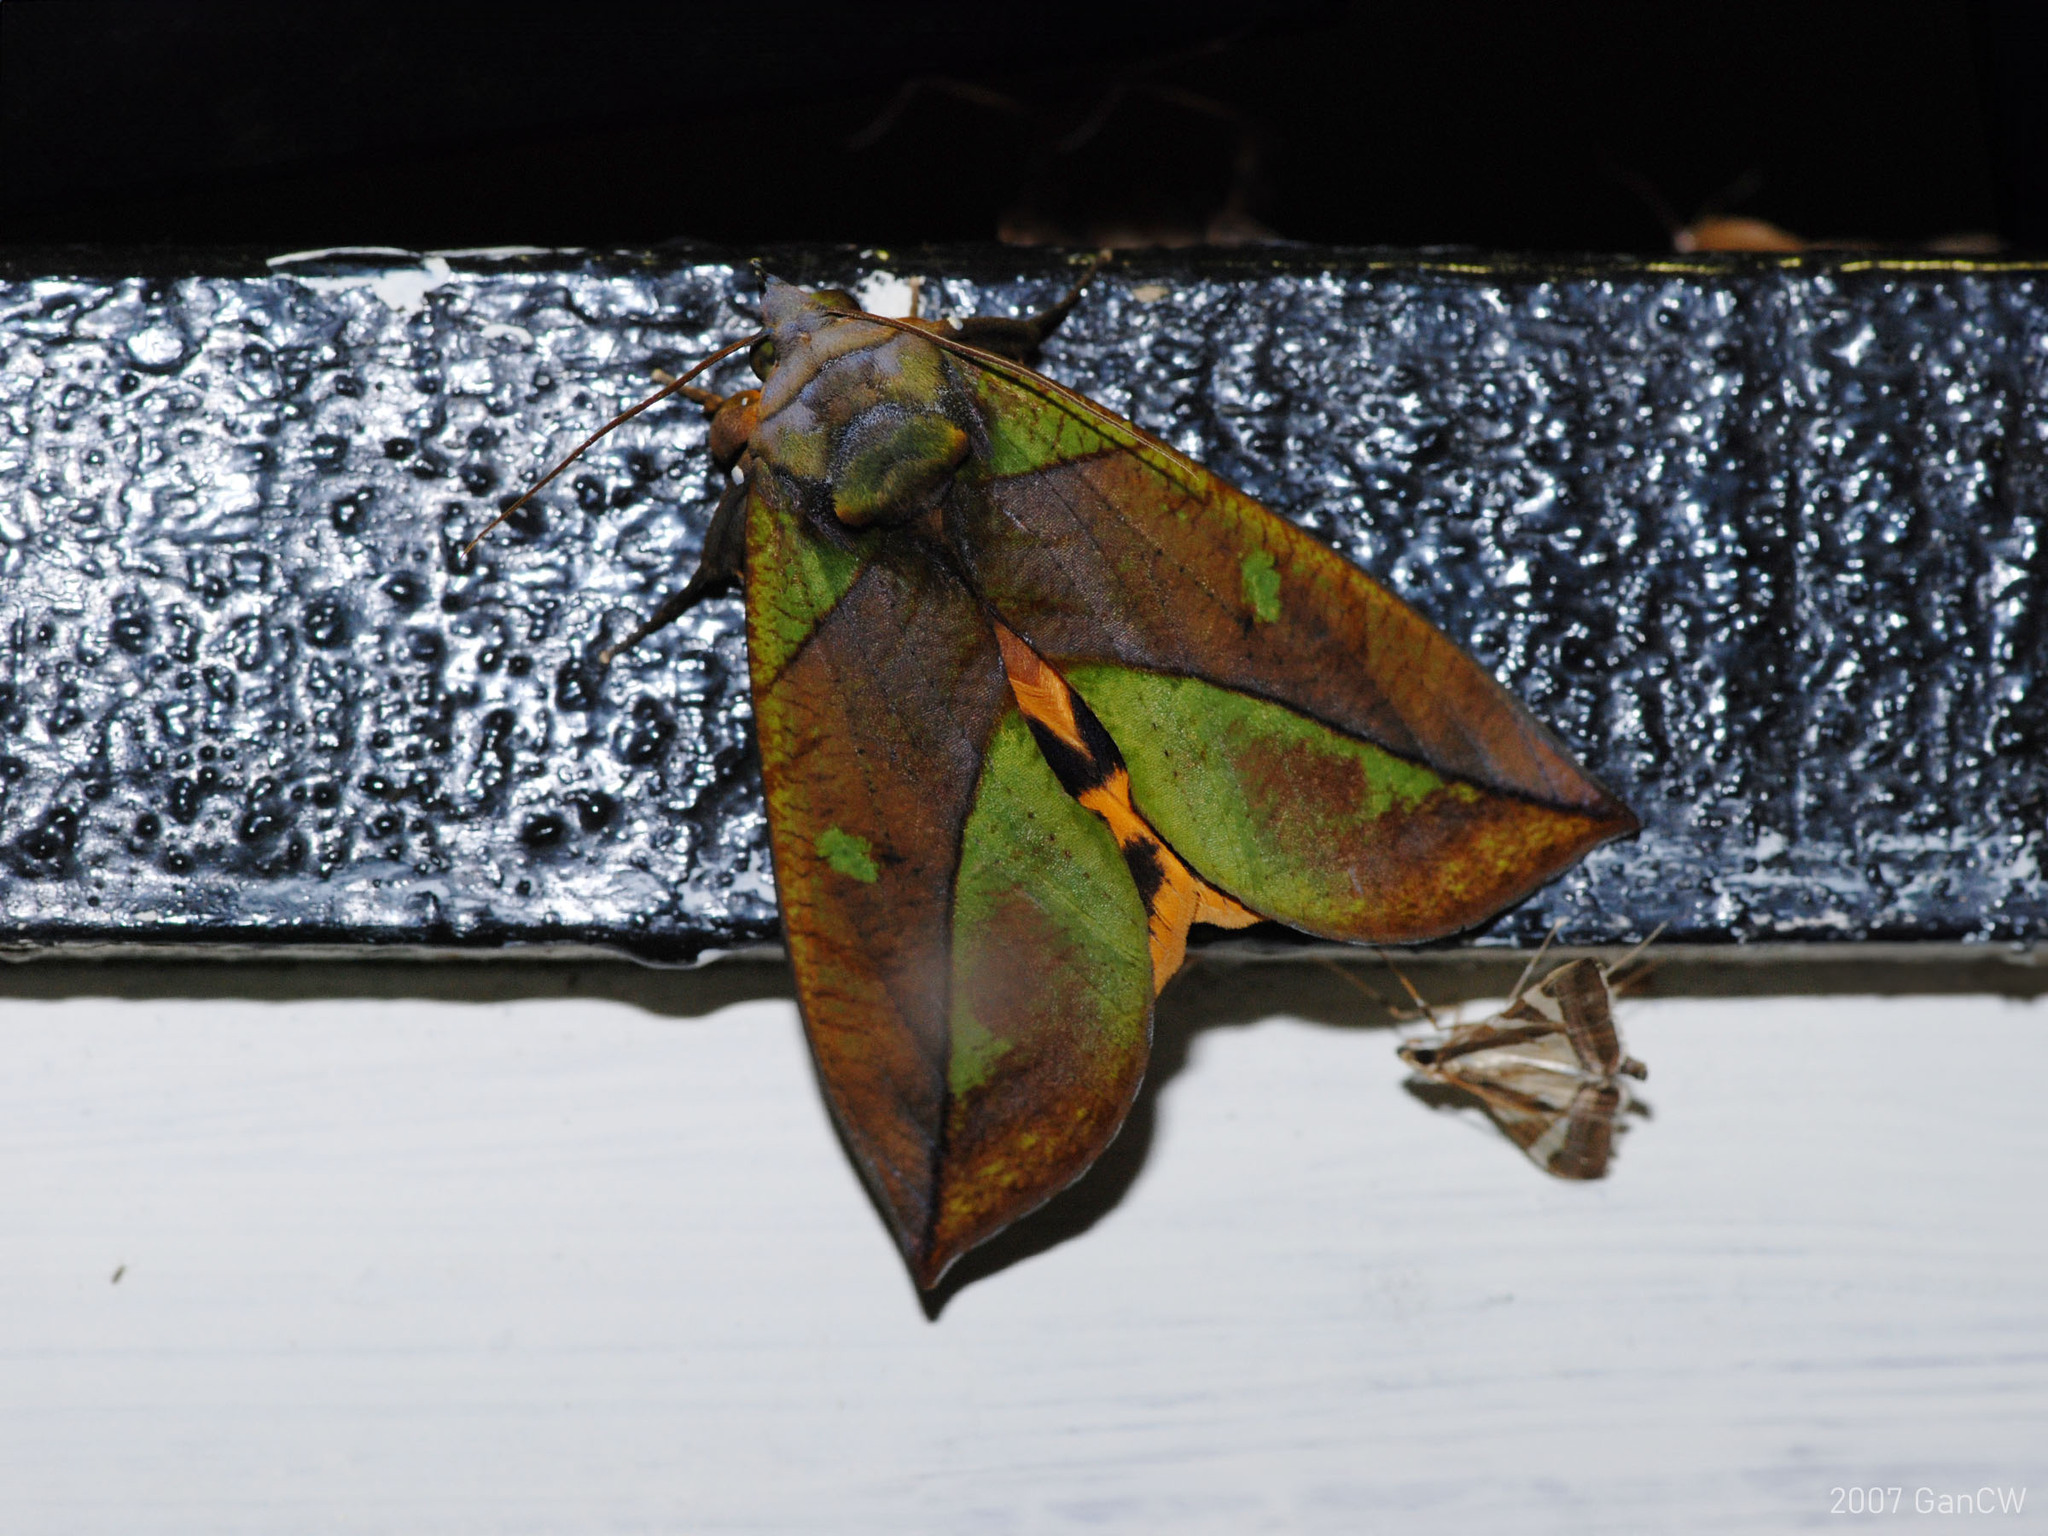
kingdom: Animalia
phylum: Arthropoda
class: Insecta
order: Lepidoptera
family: Erebidae
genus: Eudocima
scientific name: Eudocima sikhimensis
